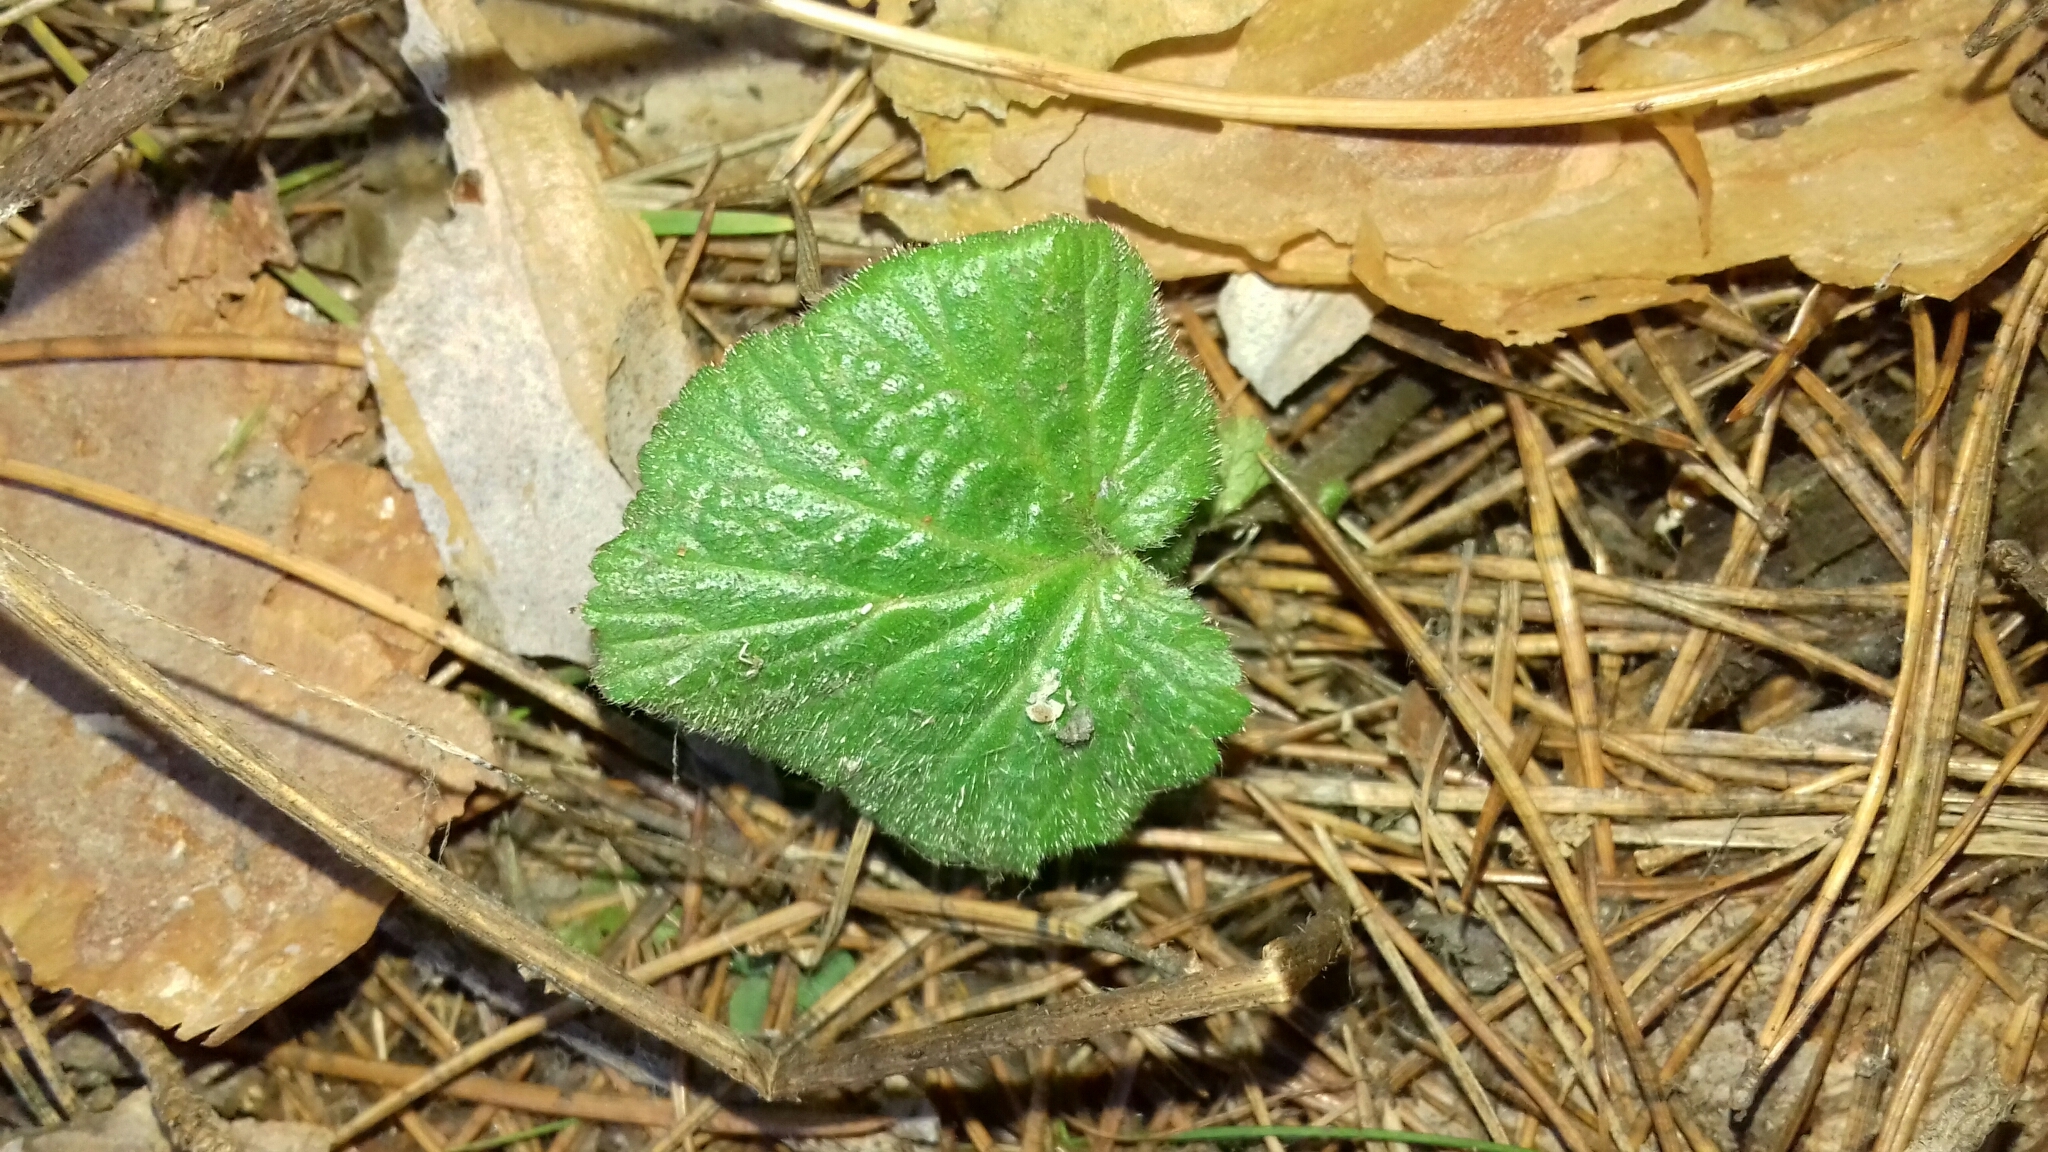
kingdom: Plantae
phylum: Tracheophyta
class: Magnoliopsida
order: Rosales
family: Rosaceae
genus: Geum
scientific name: Geum
